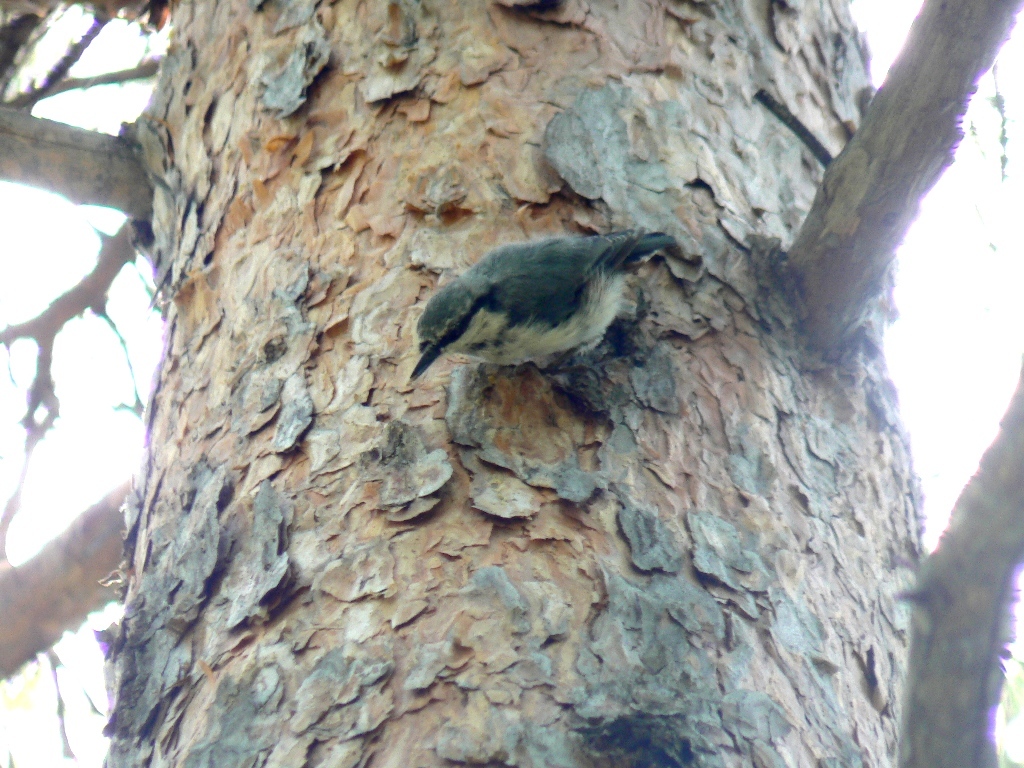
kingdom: Animalia
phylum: Chordata
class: Aves
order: Passeriformes
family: Sittidae
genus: Sitta
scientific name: Sitta europaea
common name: Eurasian nuthatch
